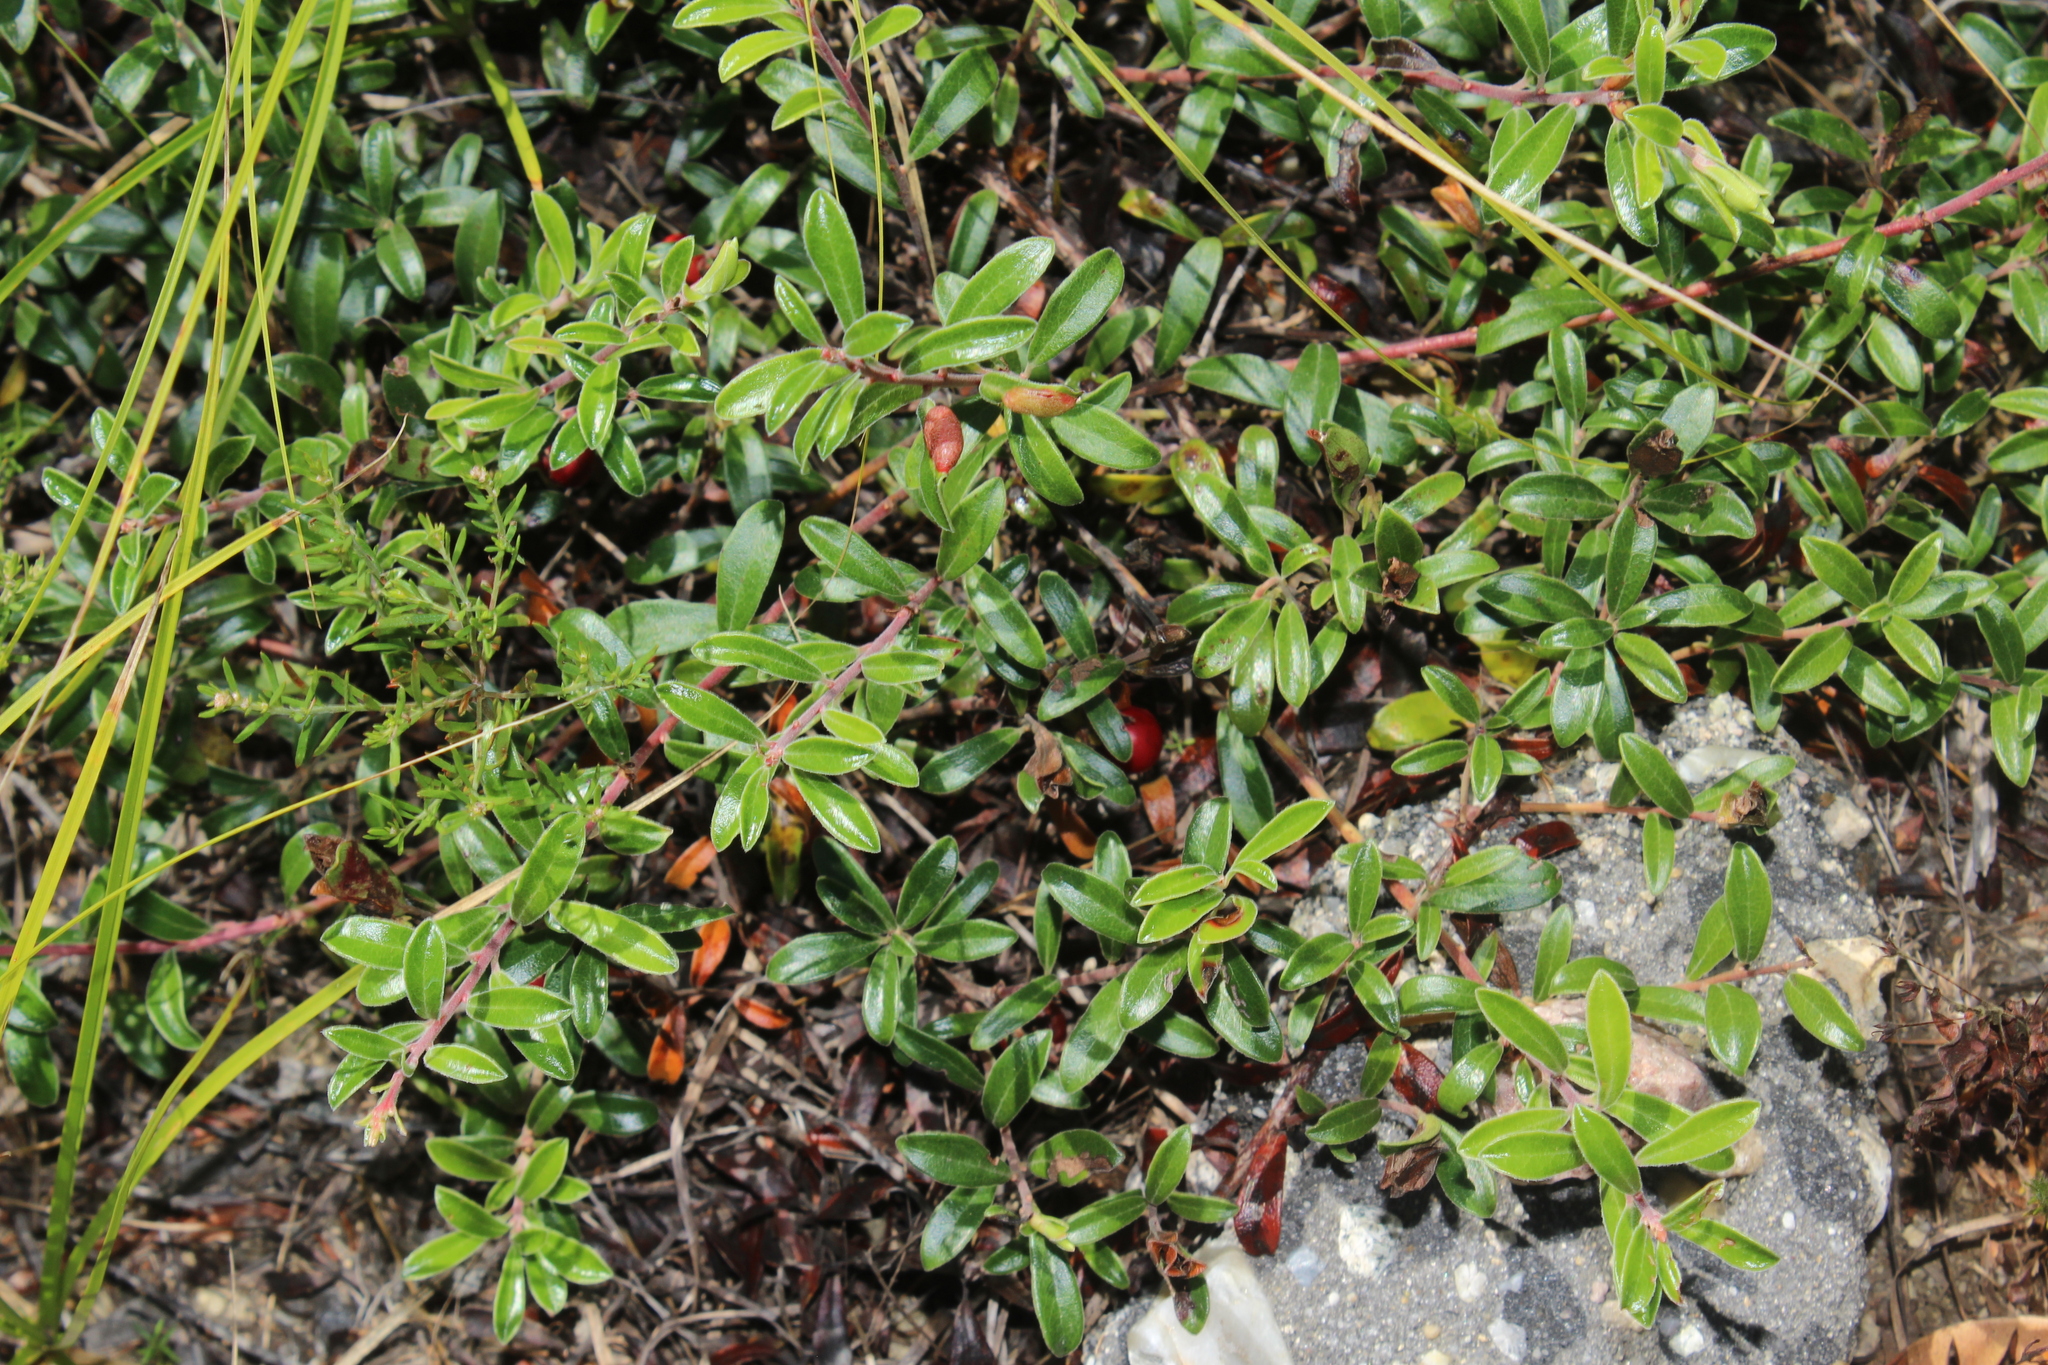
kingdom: Plantae
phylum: Tracheophyta
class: Magnoliopsida
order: Ericales
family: Ericaceae
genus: Arctostaphylos
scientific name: Arctostaphylos uva-ursi
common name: Bearberry
